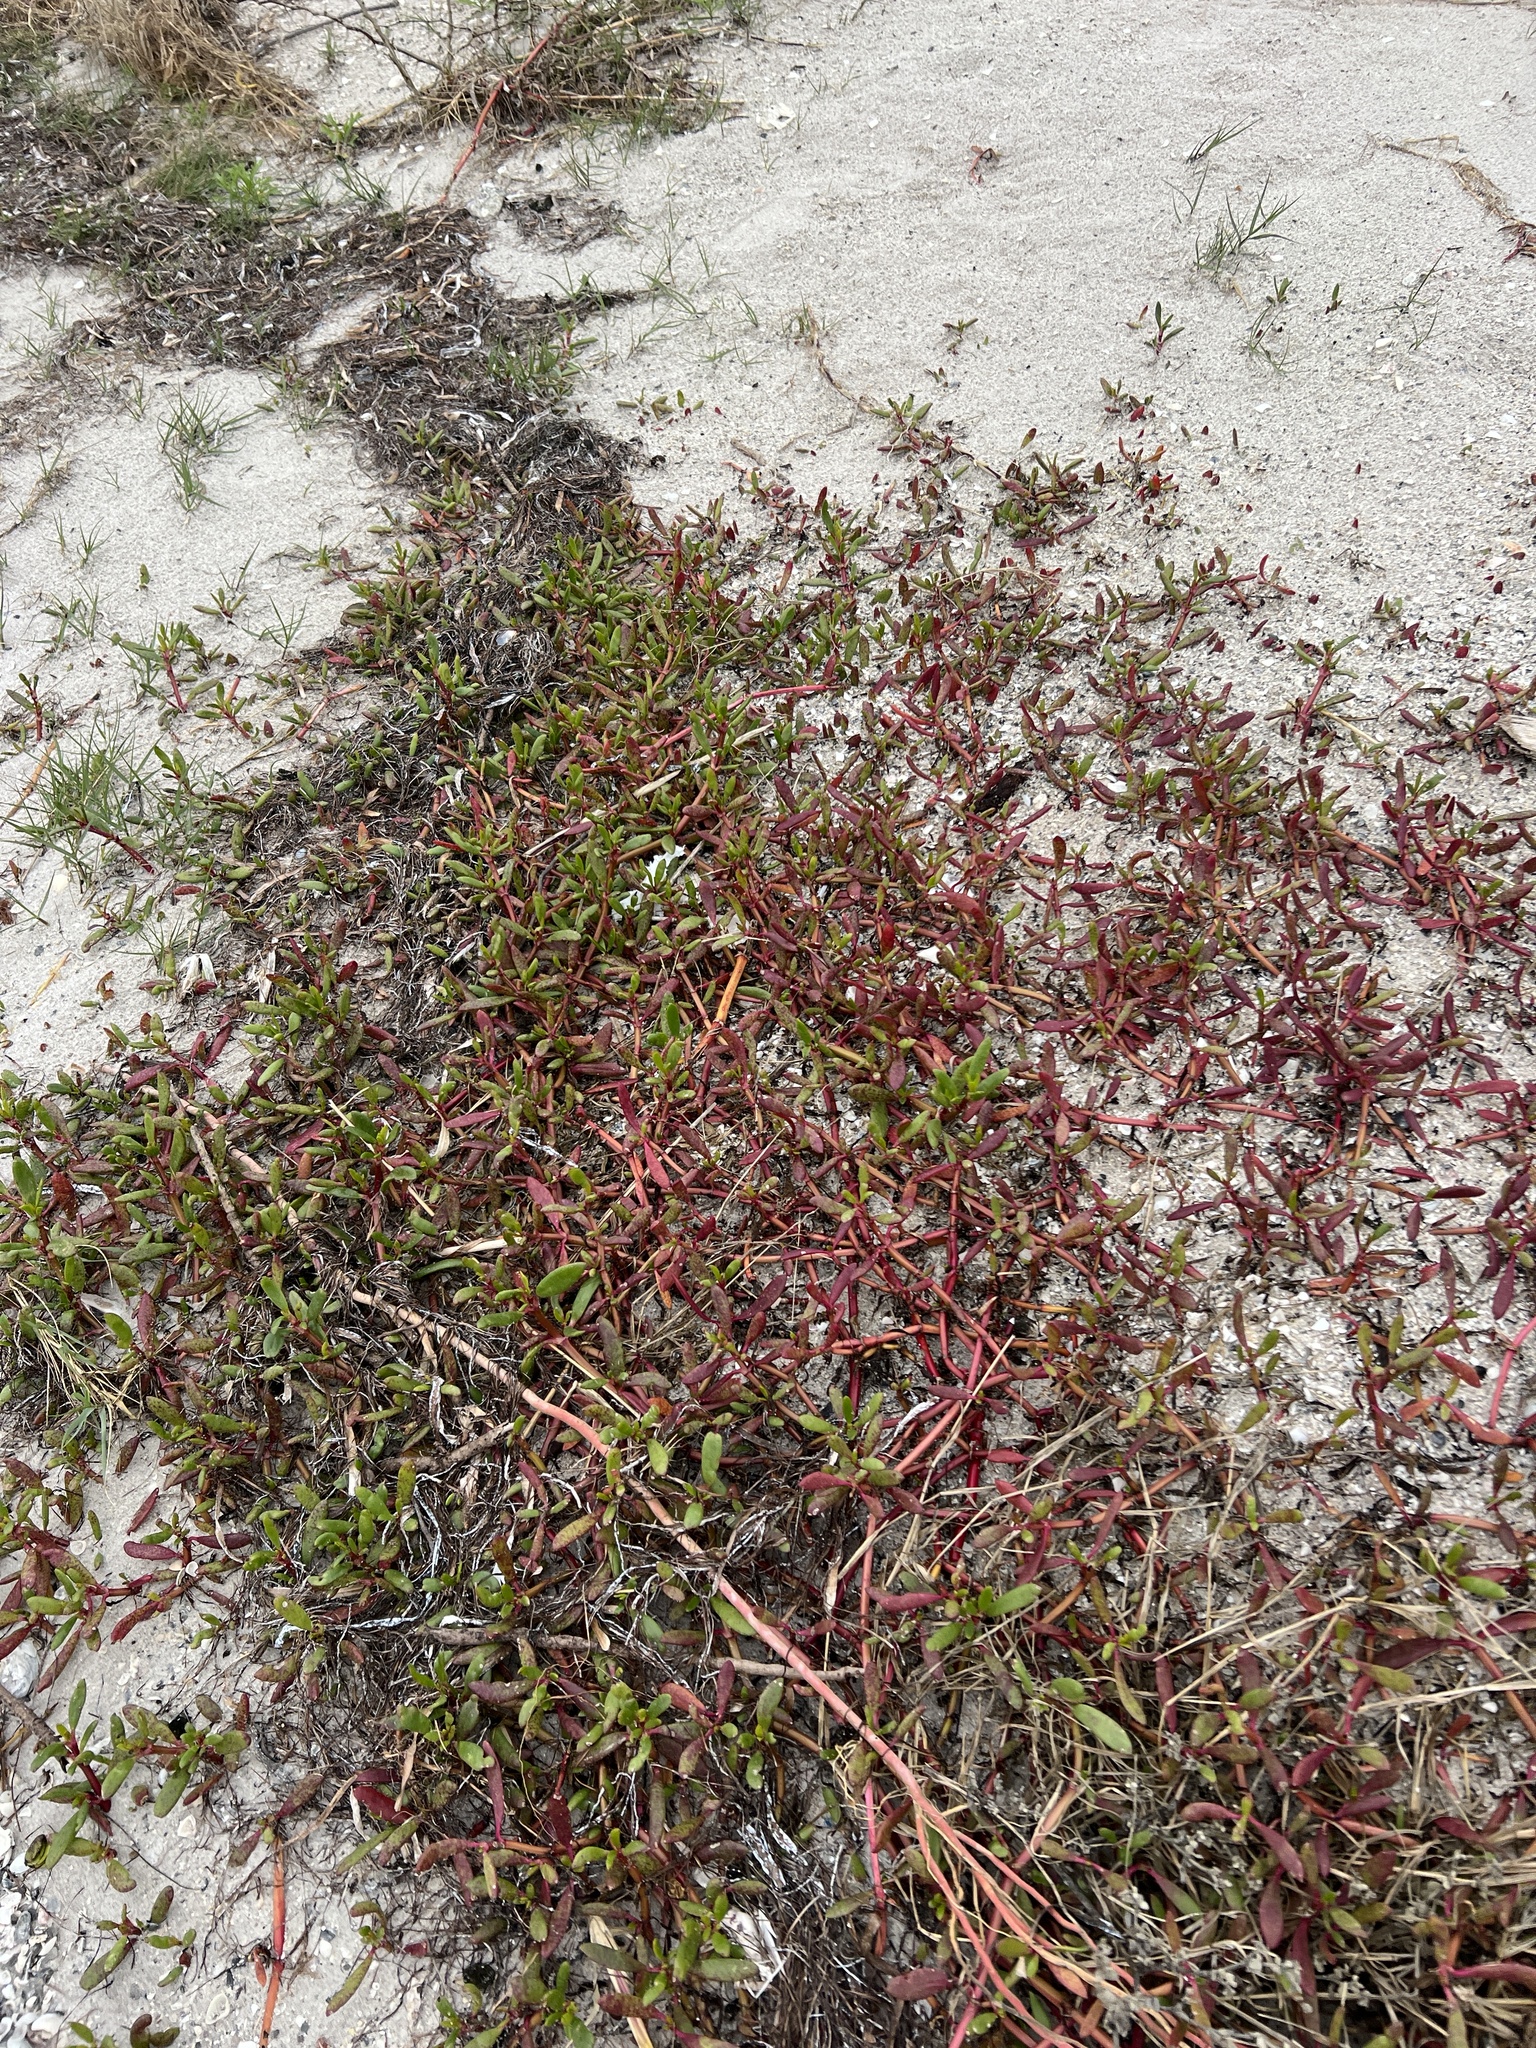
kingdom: Plantae
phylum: Tracheophyta
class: Magnoliopsida
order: Caryophyllales
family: Aizoaceae
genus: Sesuvium
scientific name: Sesuvium portulacastrum
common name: Sea-purslane
